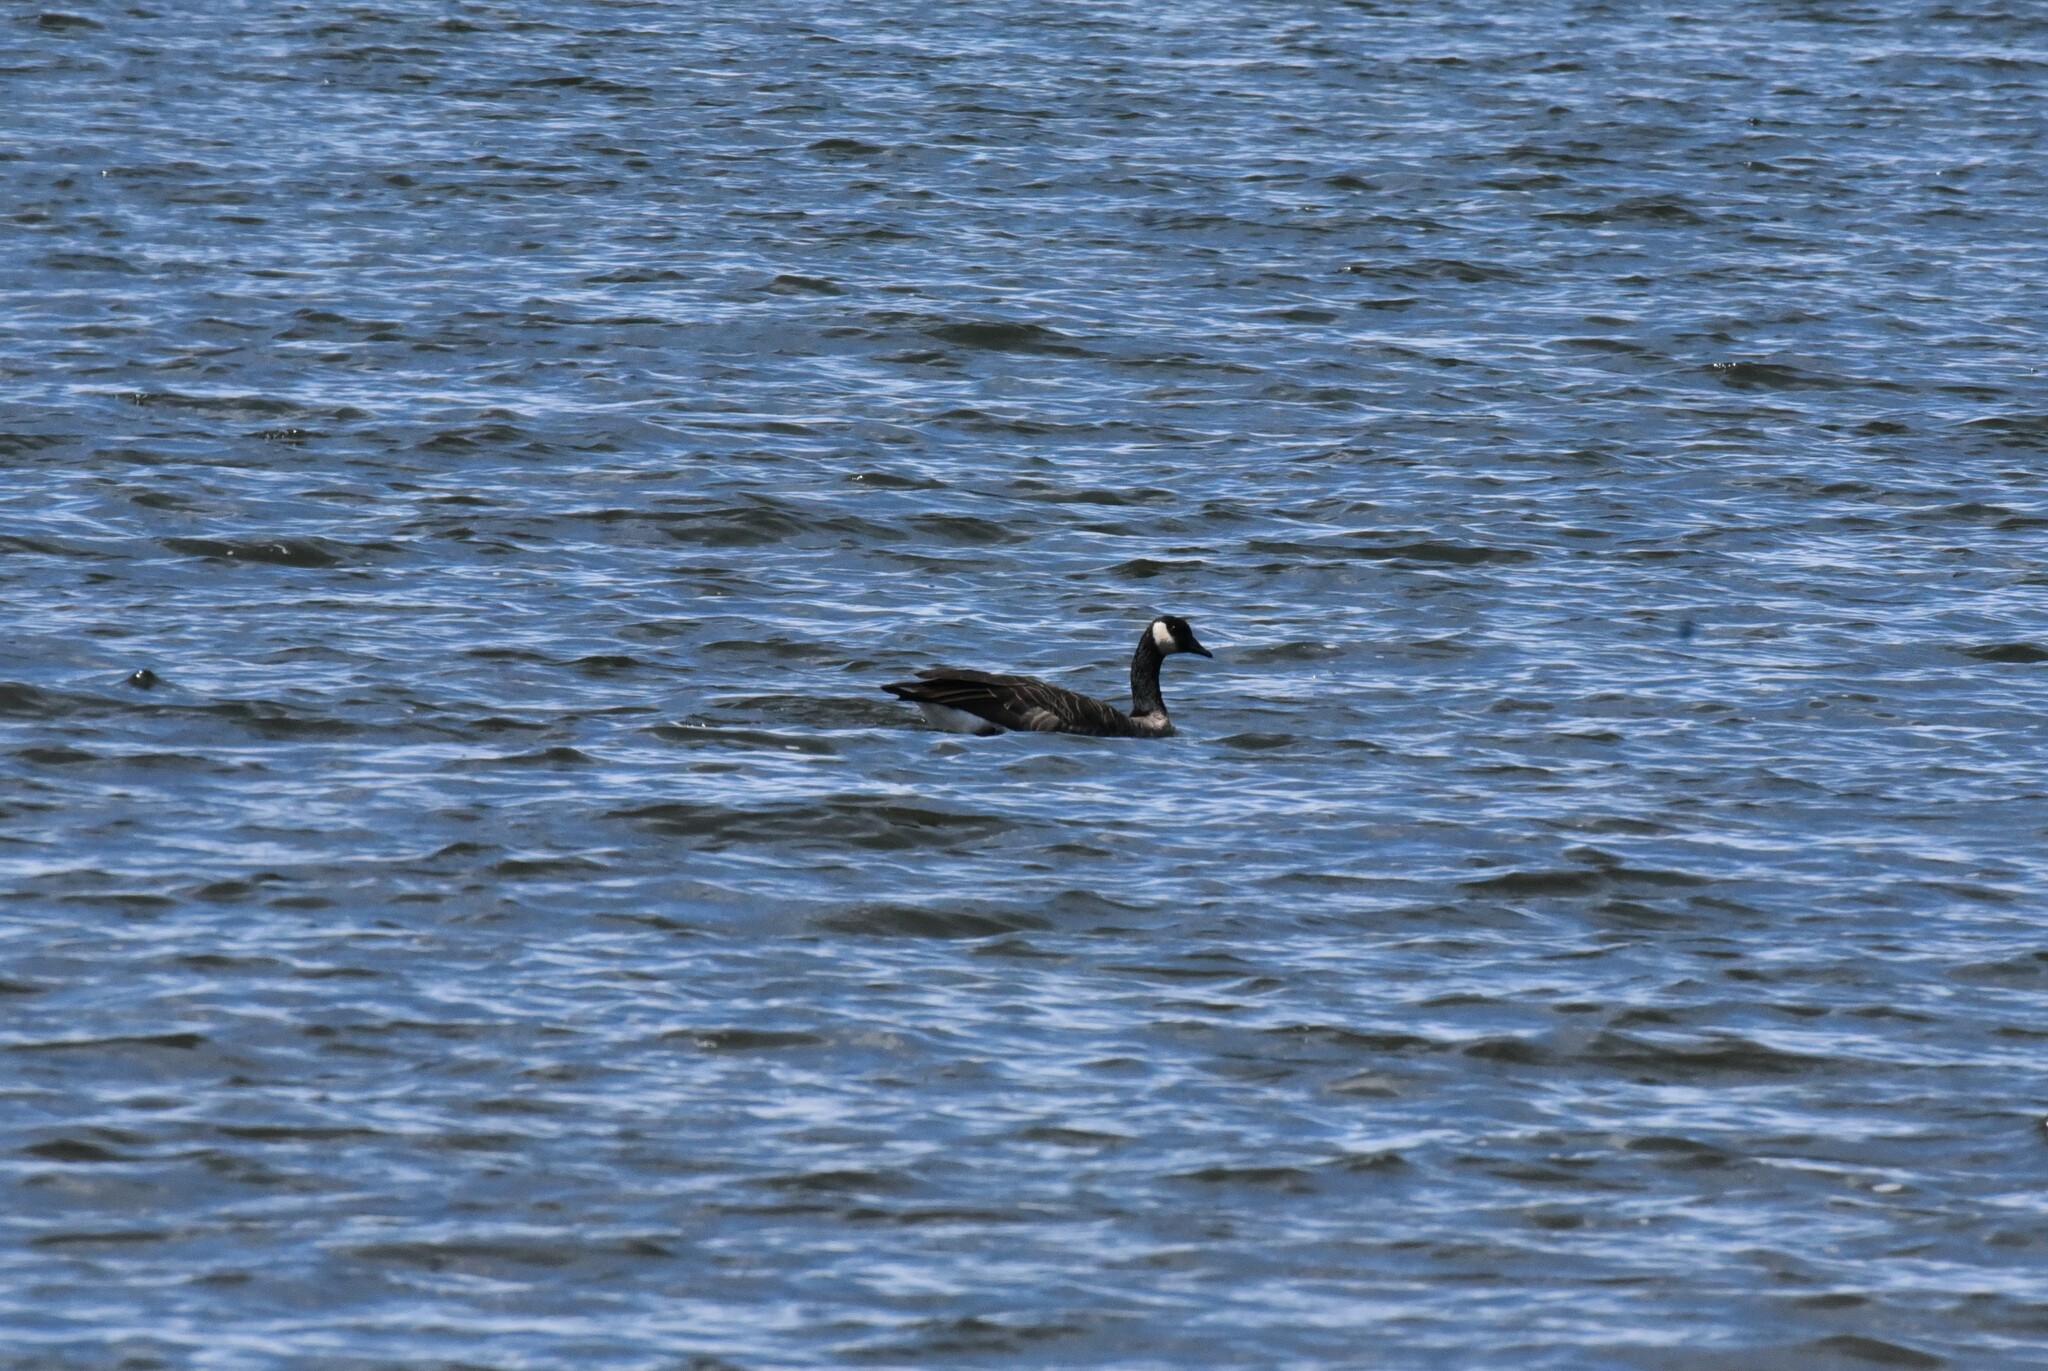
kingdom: Animalia
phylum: Chordata
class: Aves
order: Anseriformes
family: Anatidae
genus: Branta
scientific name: Branta canadensis
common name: Canada goose
